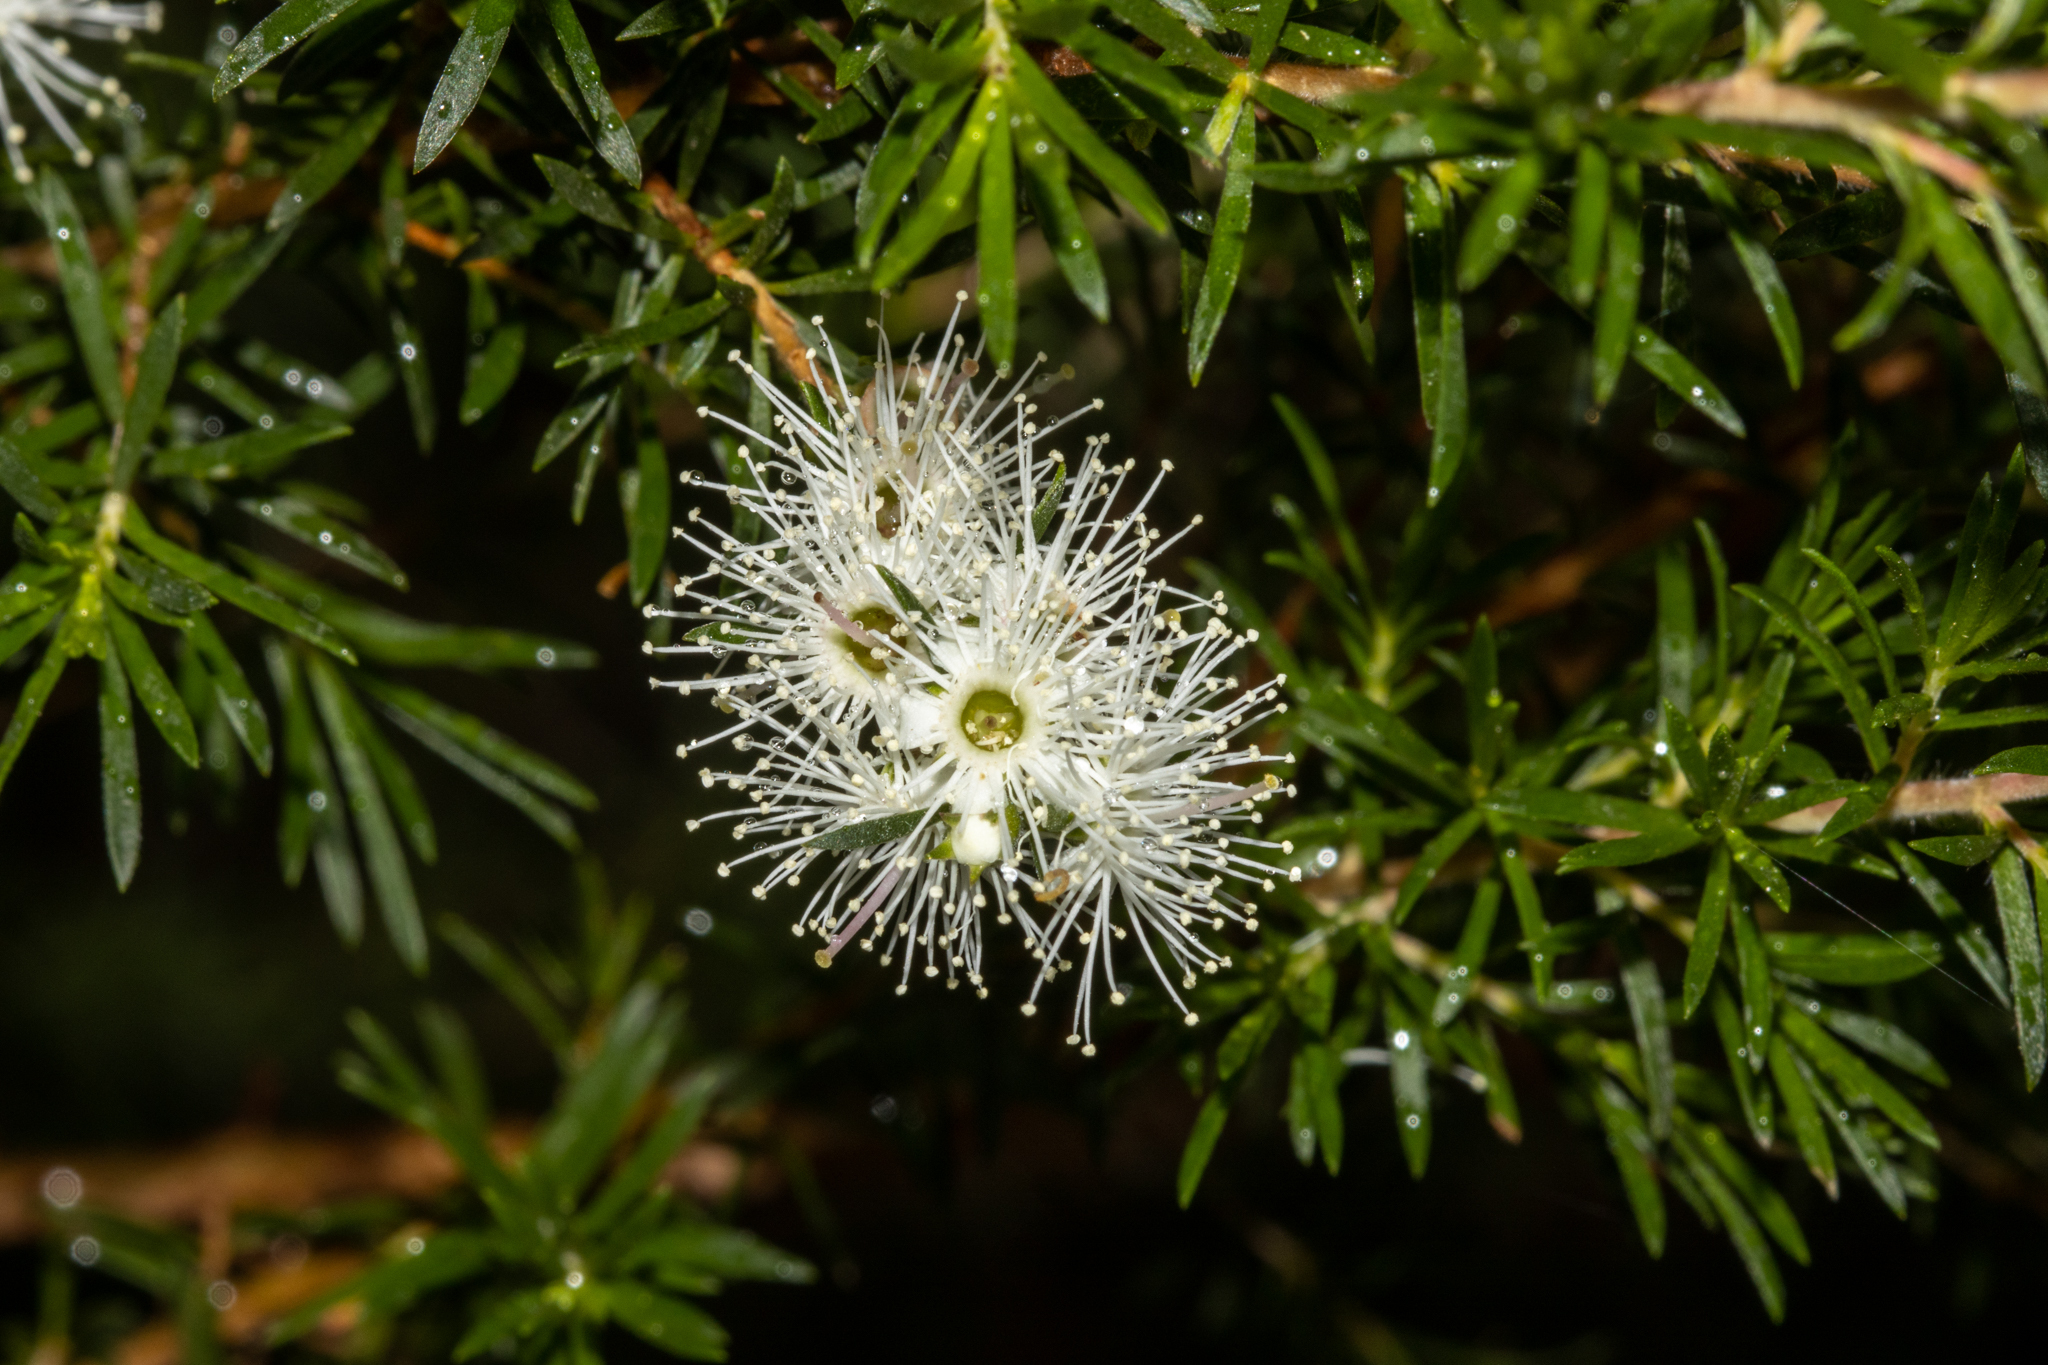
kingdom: Plantae
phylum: Tracheophyta
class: Magnoliopsida
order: Myrtales
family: Myrtaceae
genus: Kunzea
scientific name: Kunzea ambigua
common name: Tickbush
